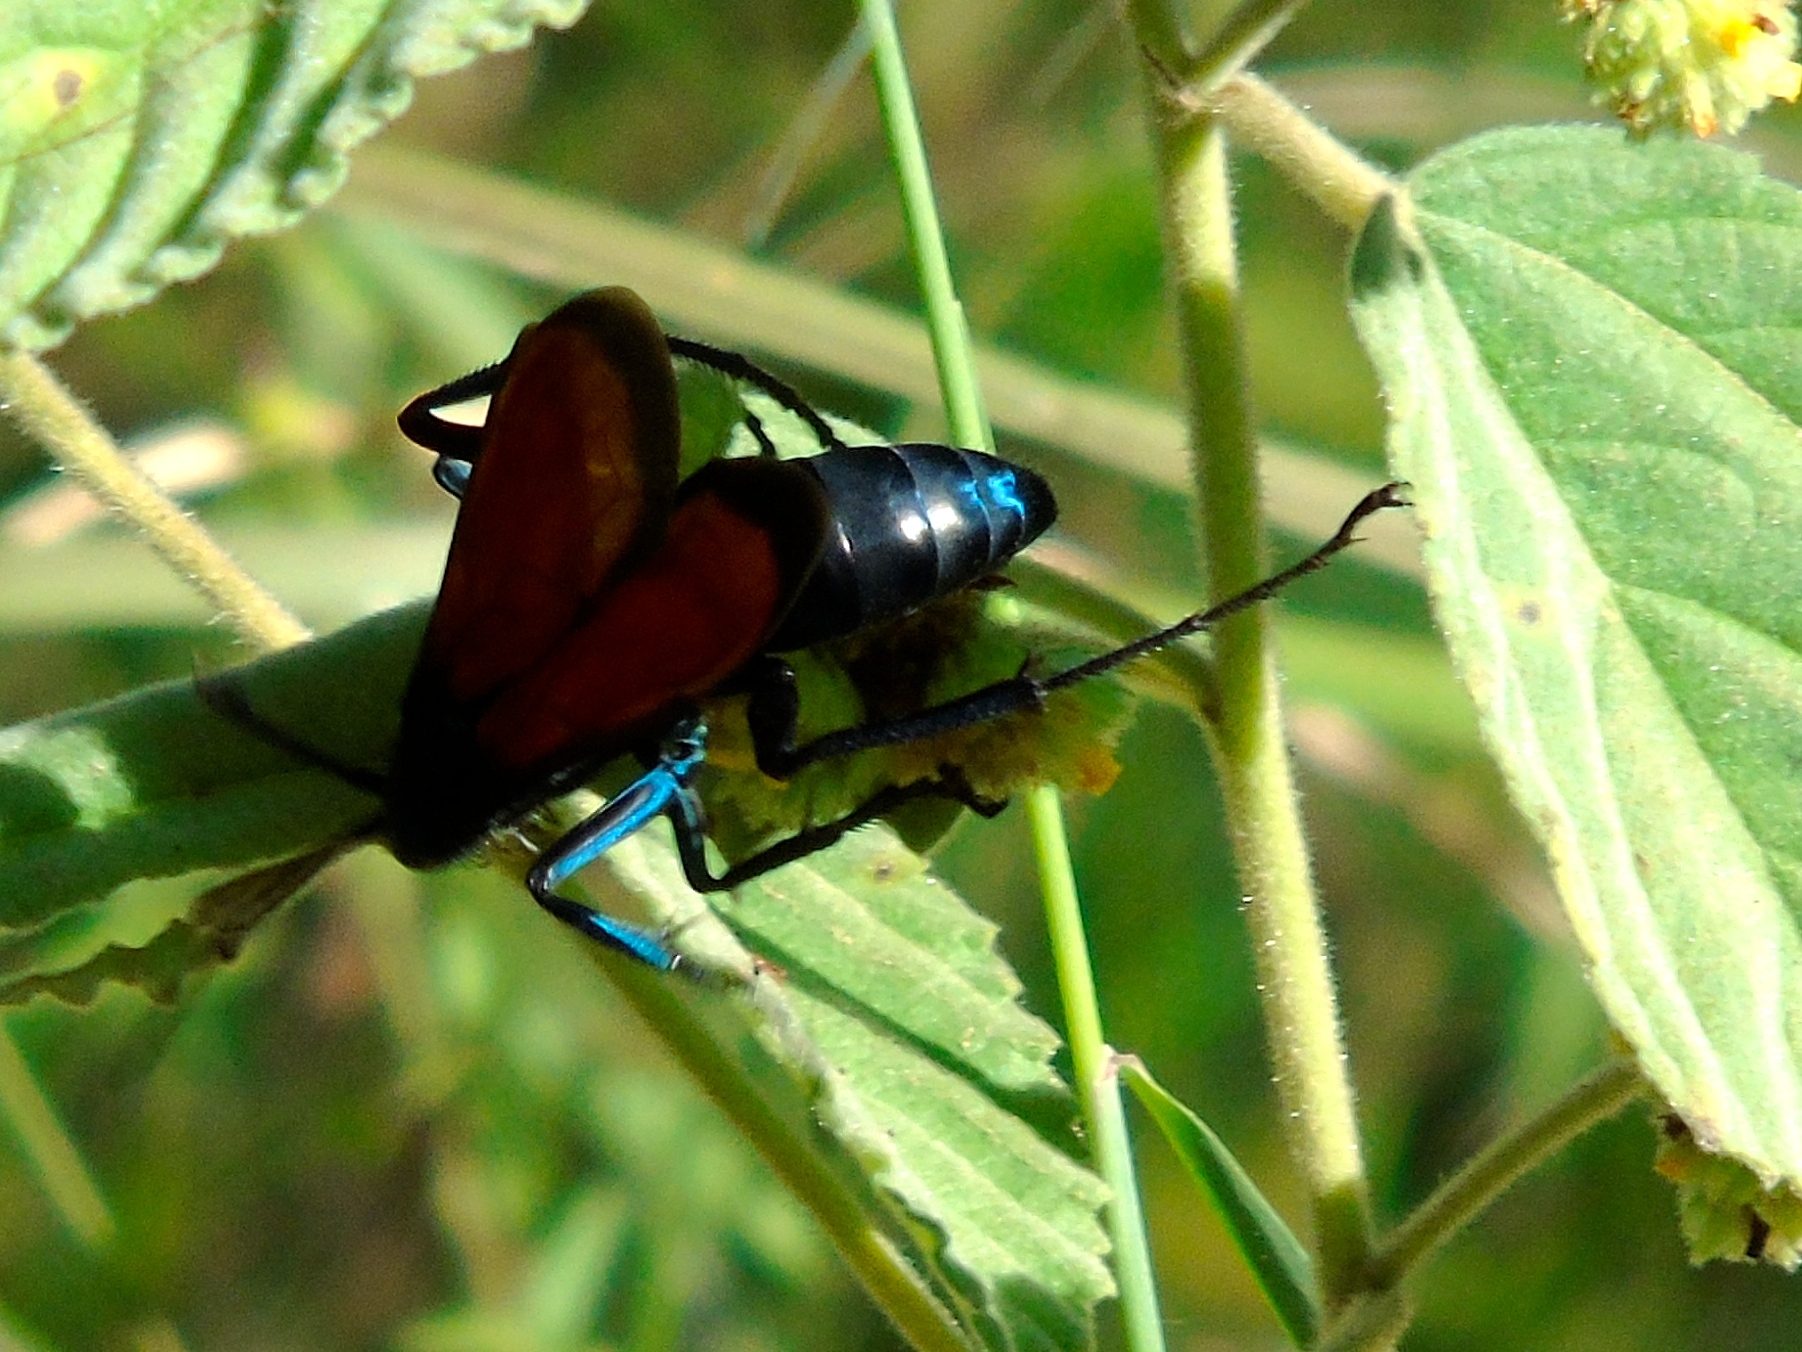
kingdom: Animalia
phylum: Arthropoda
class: Insecta
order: Hymenoptera
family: Pompilidae
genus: Pepsis
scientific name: Pepsis
